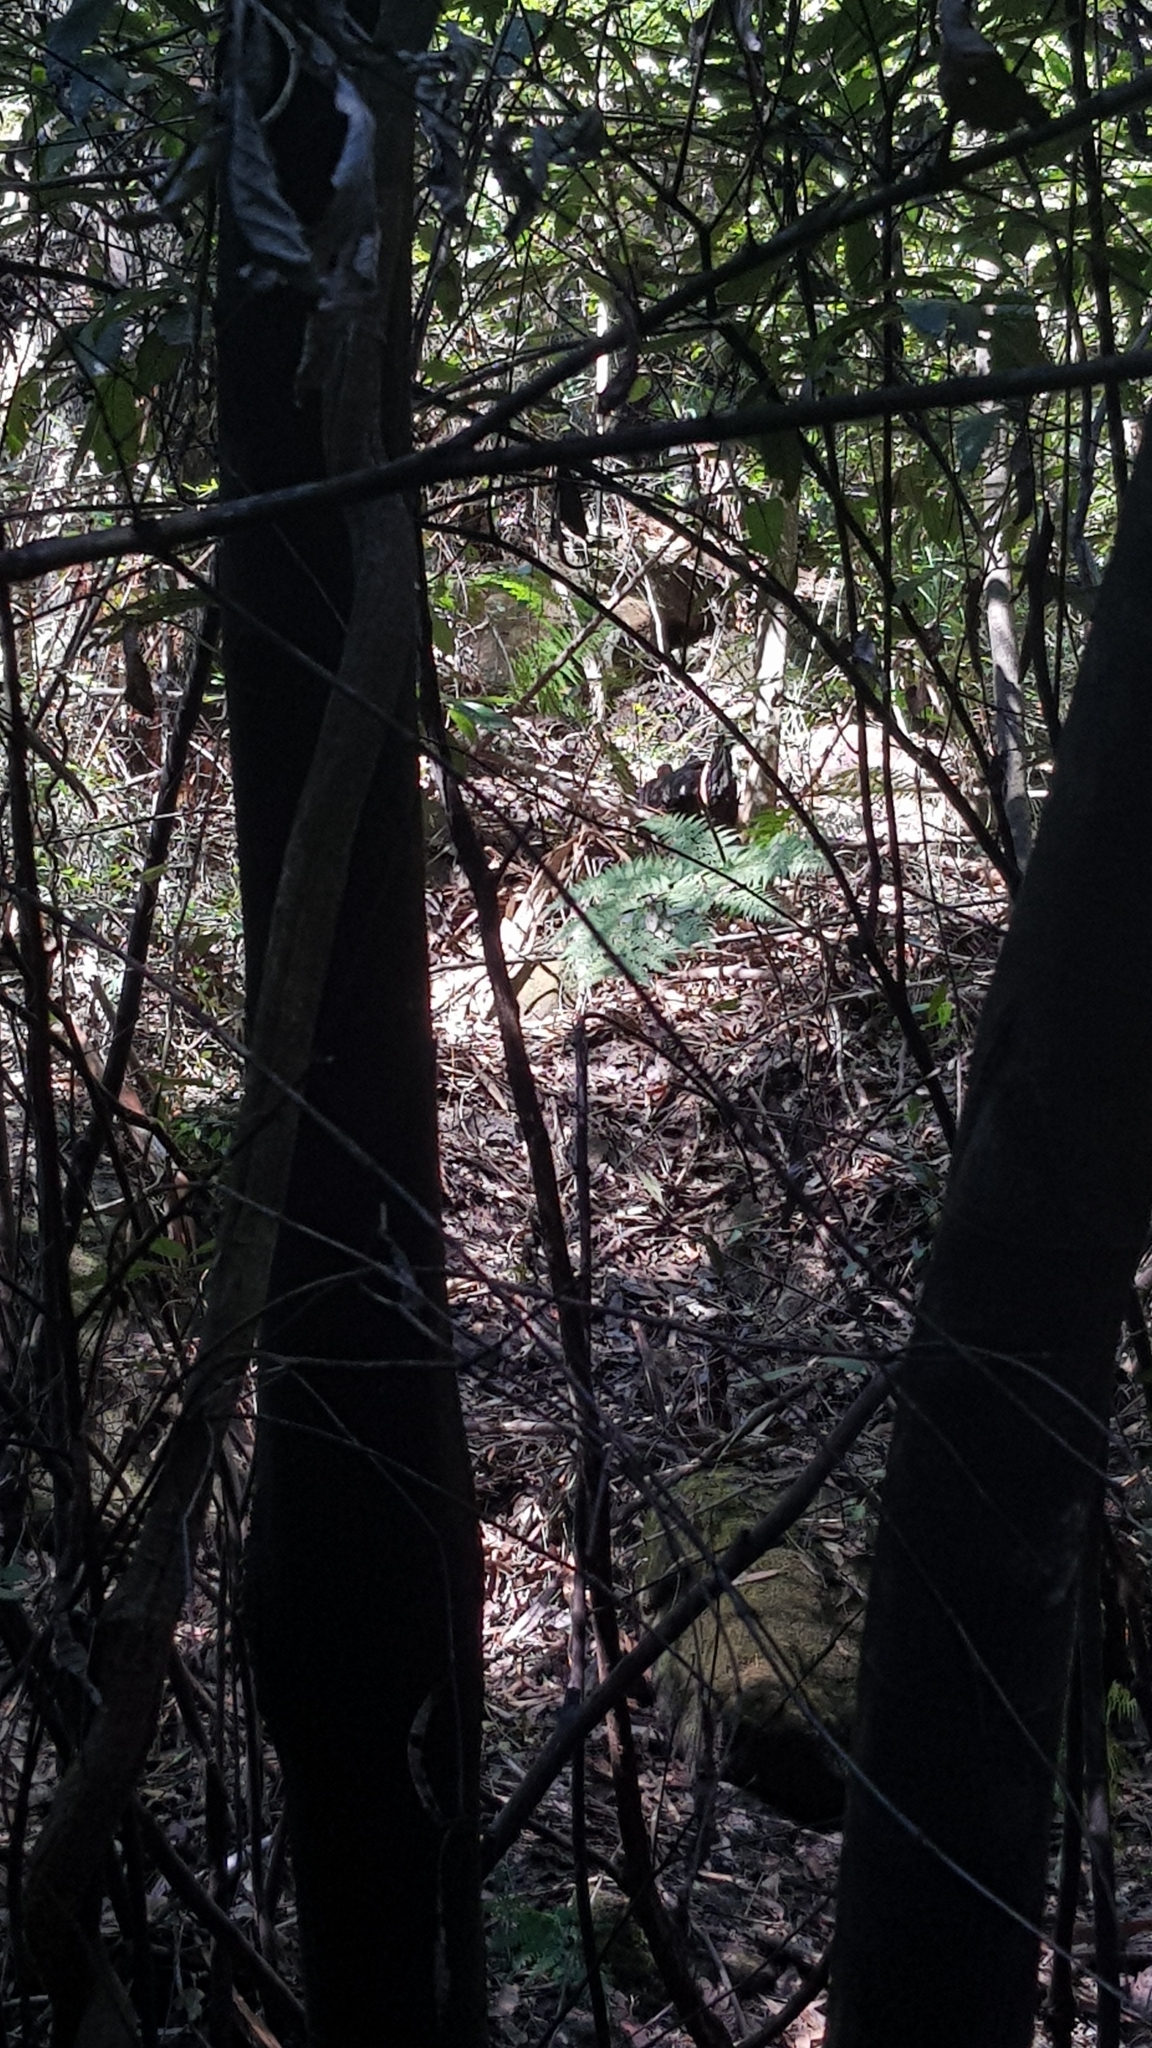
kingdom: Animalia
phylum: Chordata
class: Aves
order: Galliformes
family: Megapodiidae
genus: Alectura
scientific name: Alectura lathami
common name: Australian brushturkey
